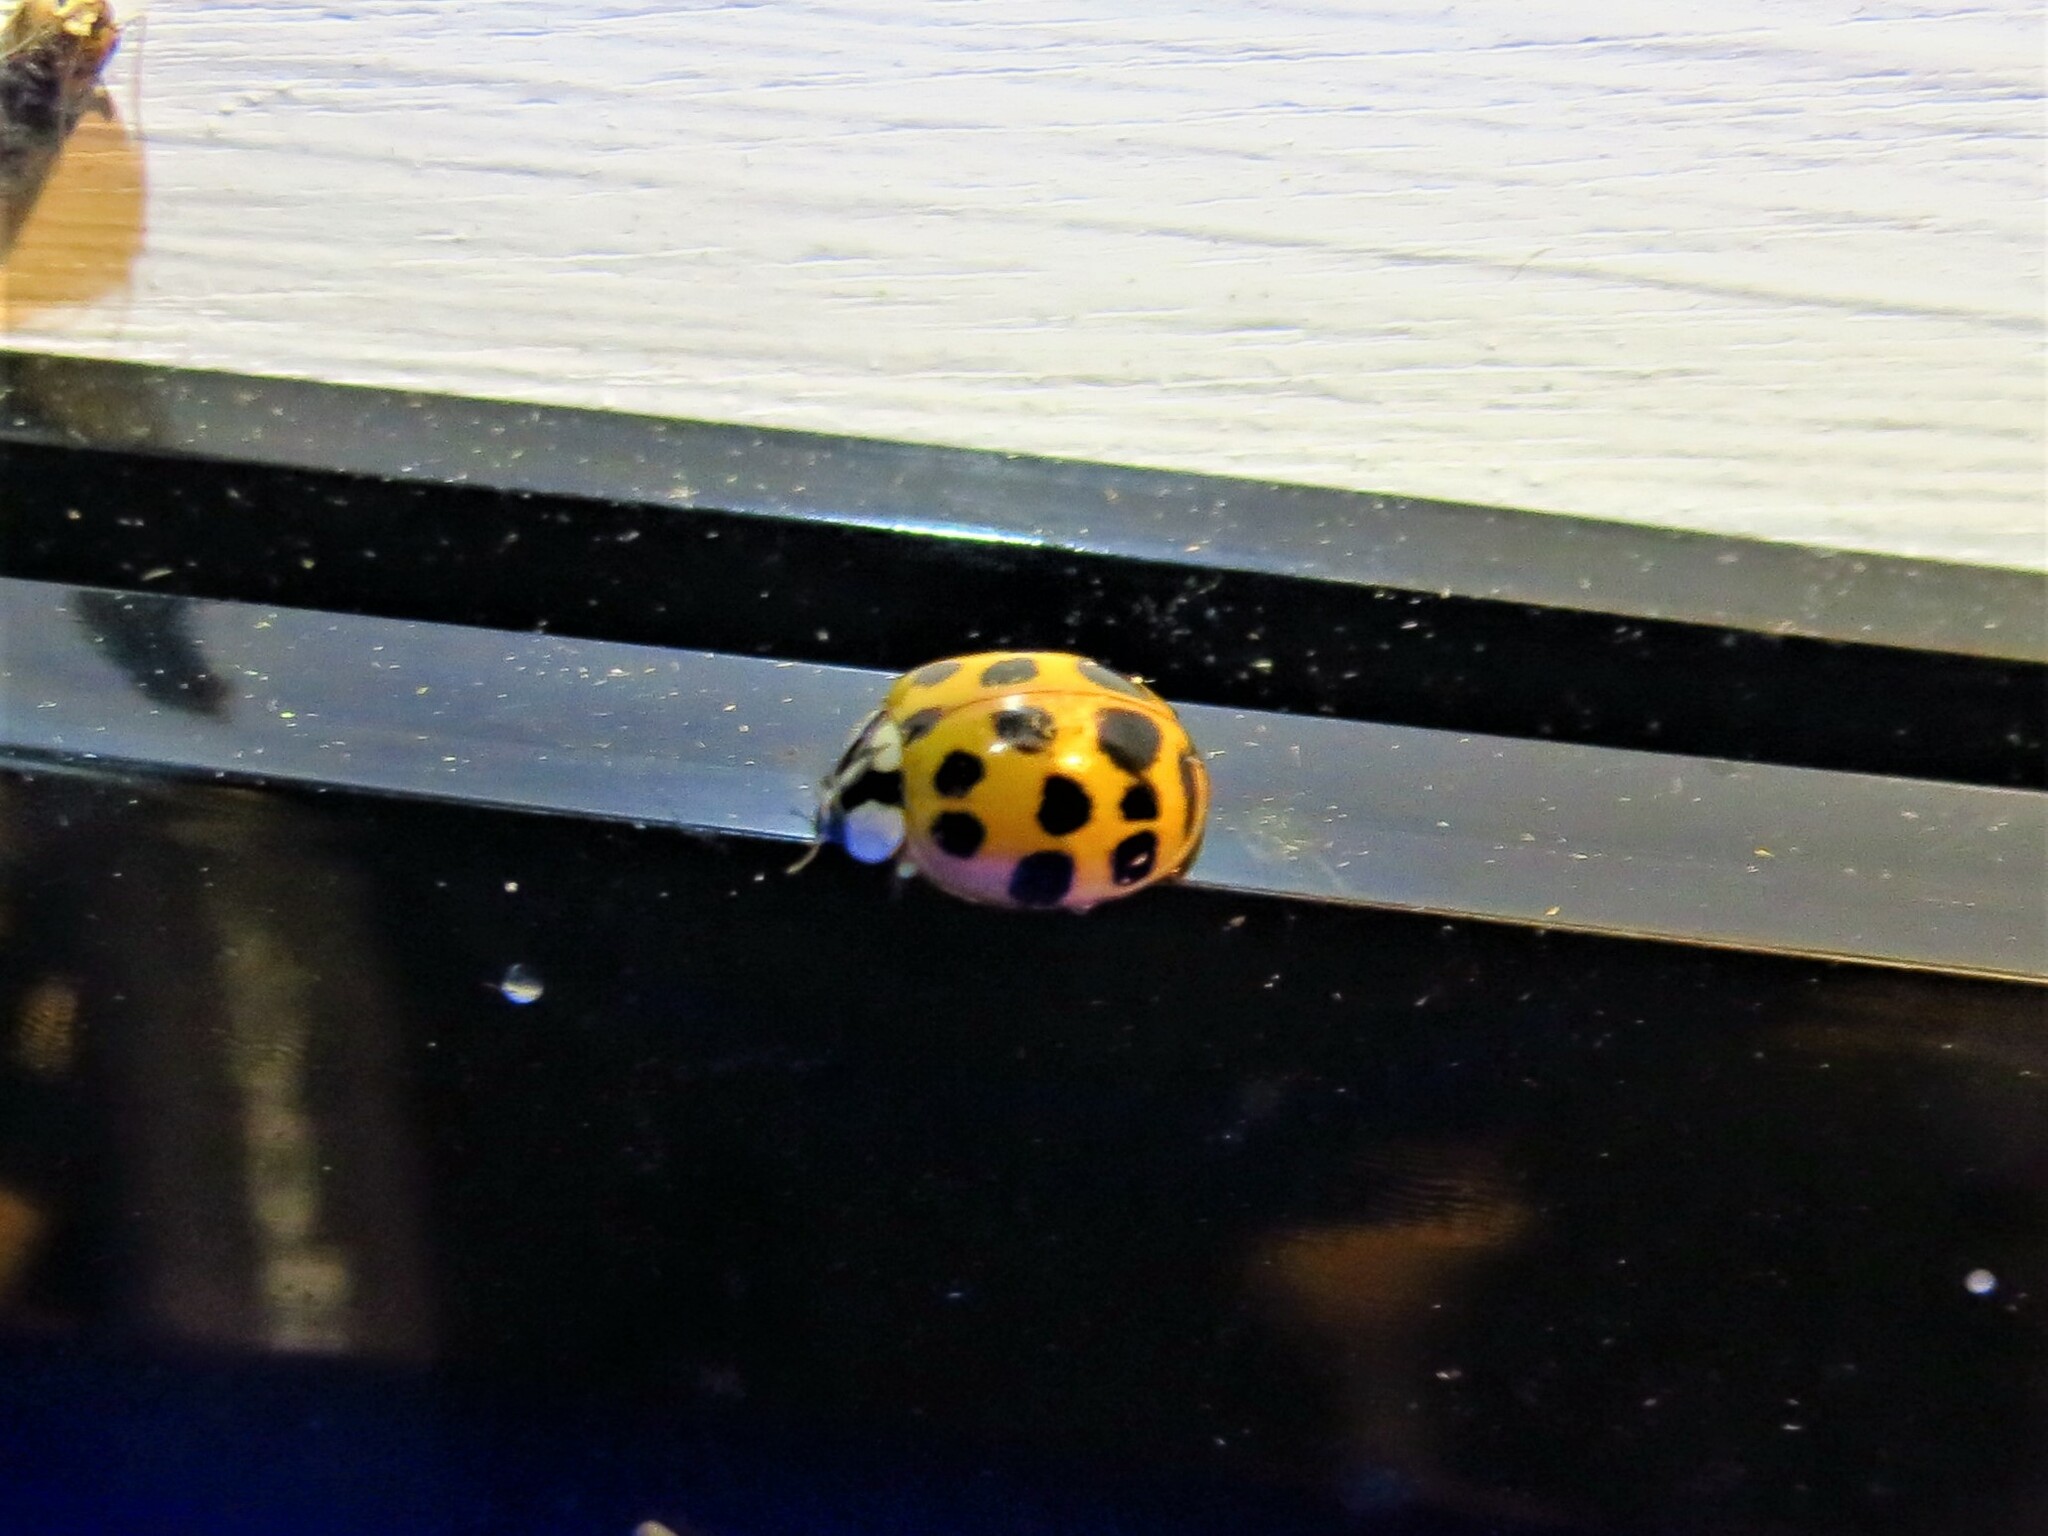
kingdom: Animalia
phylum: Arthropoda
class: Insecta
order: Coleoptera
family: Coccinellidae
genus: Harmonia
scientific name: Harmonia axyridis
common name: Harlequin ladybird
